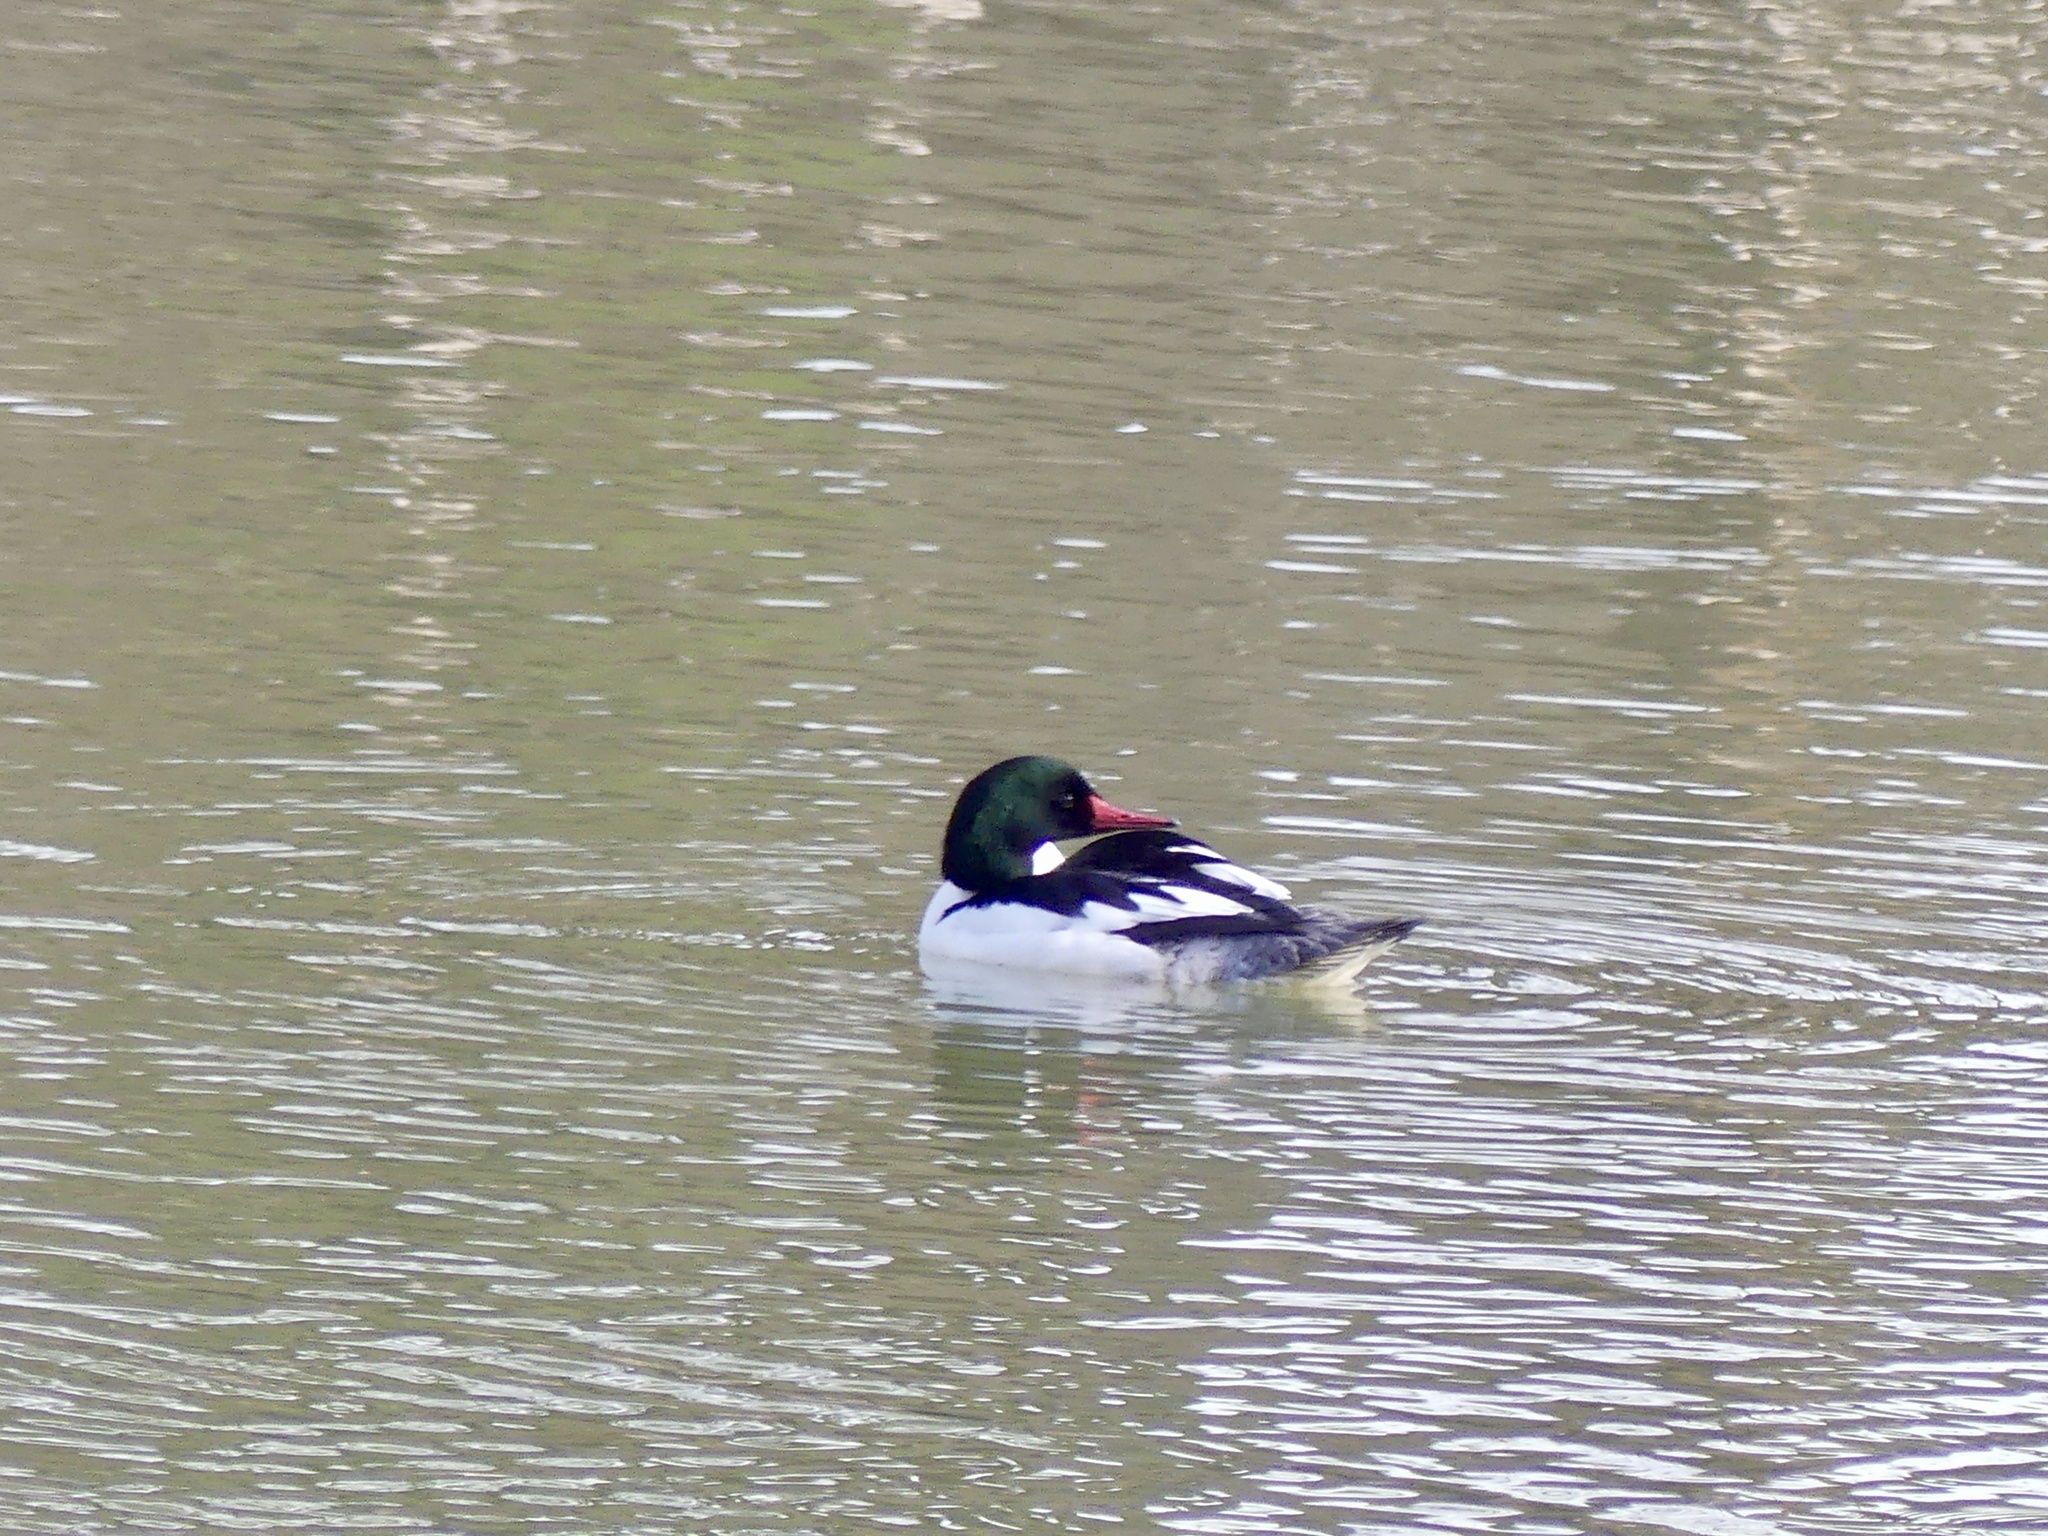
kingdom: Animalia
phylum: Chordata
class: Aves
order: Anseriformes
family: Anatidae
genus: Mergus
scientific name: Mergus merganser
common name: Common merganser
